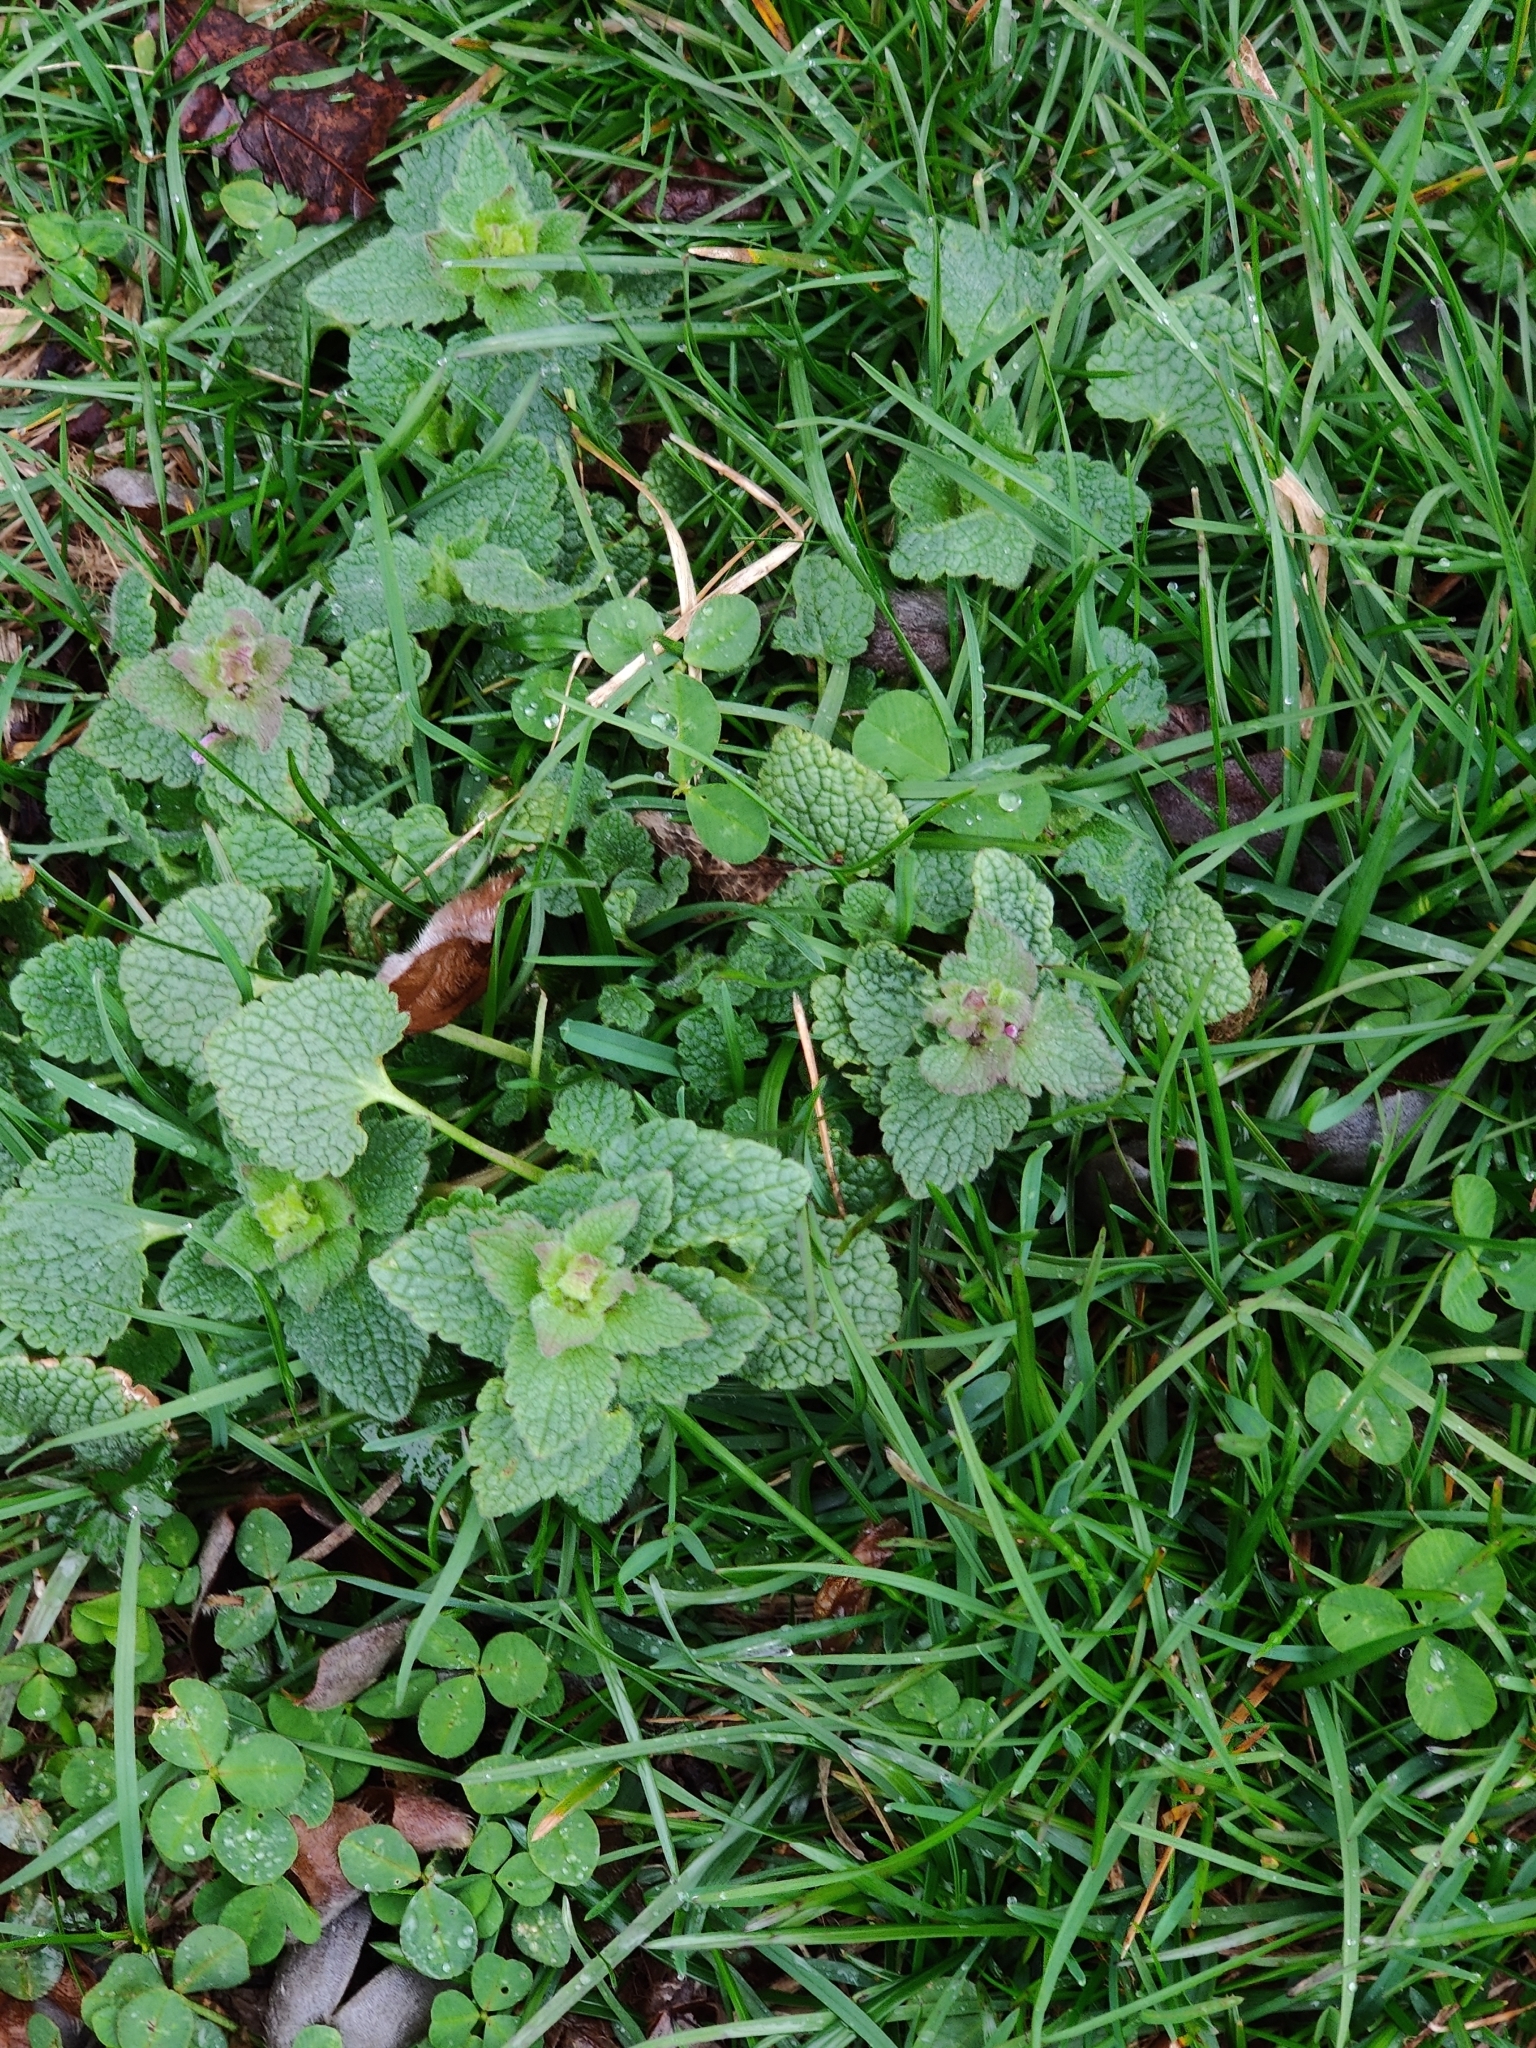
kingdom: Plantae
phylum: Tracheophyta
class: Magnoliopsida
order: Lamiales
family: Lamiaceae
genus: Lamium
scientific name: Lamium purpureum
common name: Red dead-nettle
